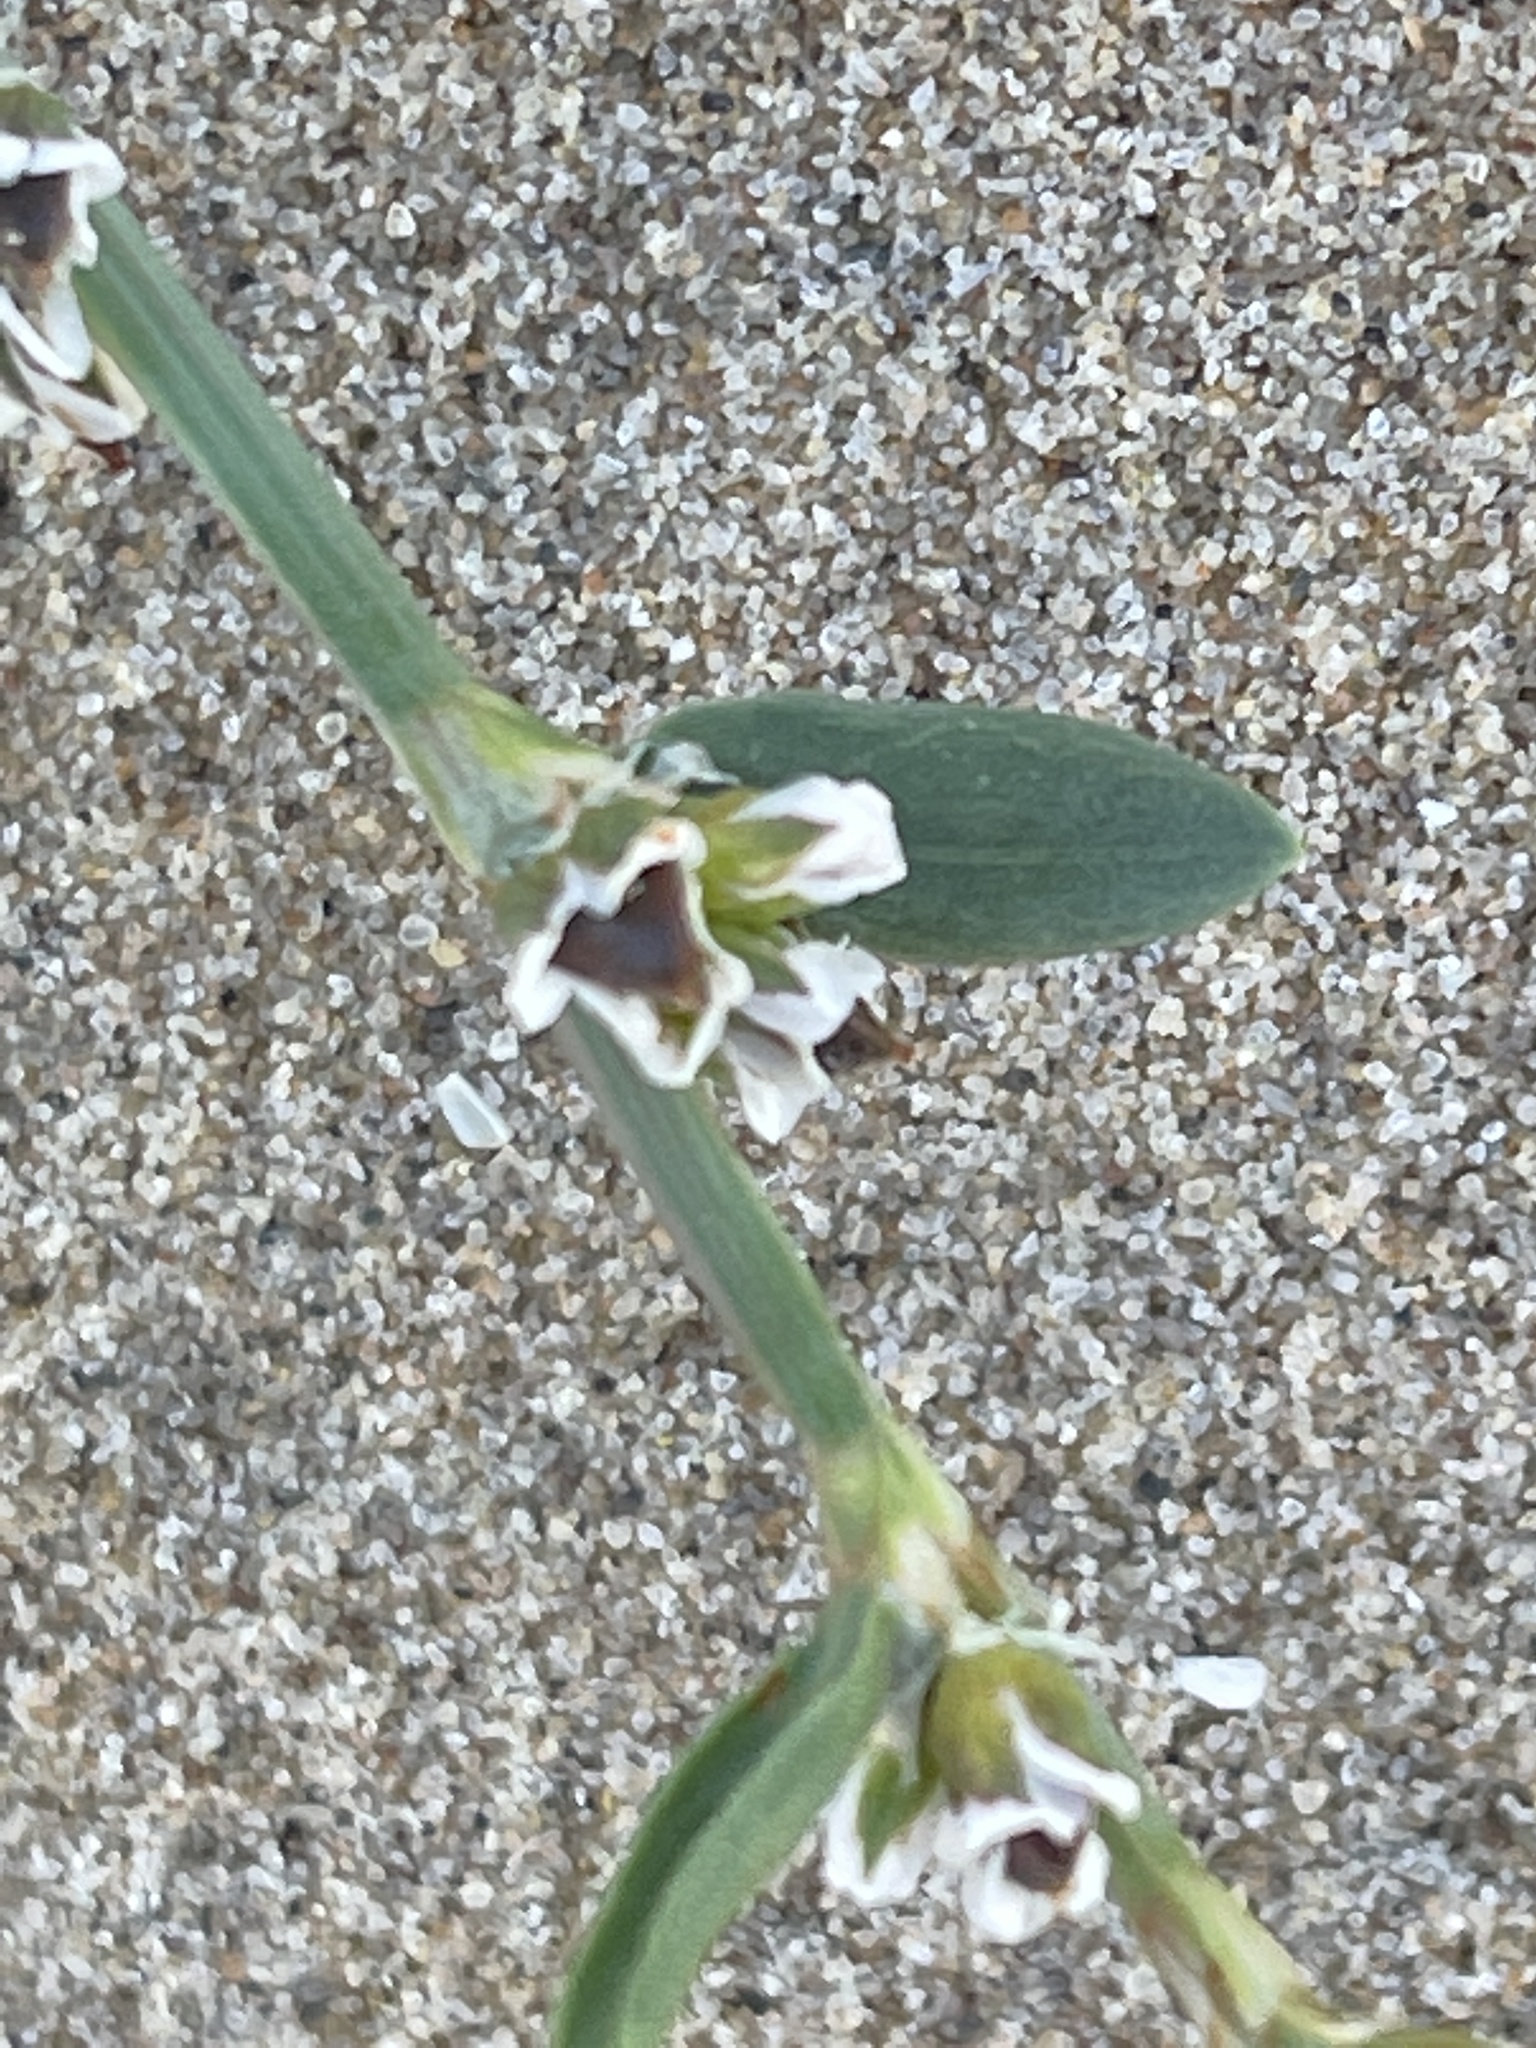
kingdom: Plantae
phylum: Tracheophyta
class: Magnoliopsida
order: Caryophyllales
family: Polygonaceae
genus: Polygonum
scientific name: Polygonum raii
